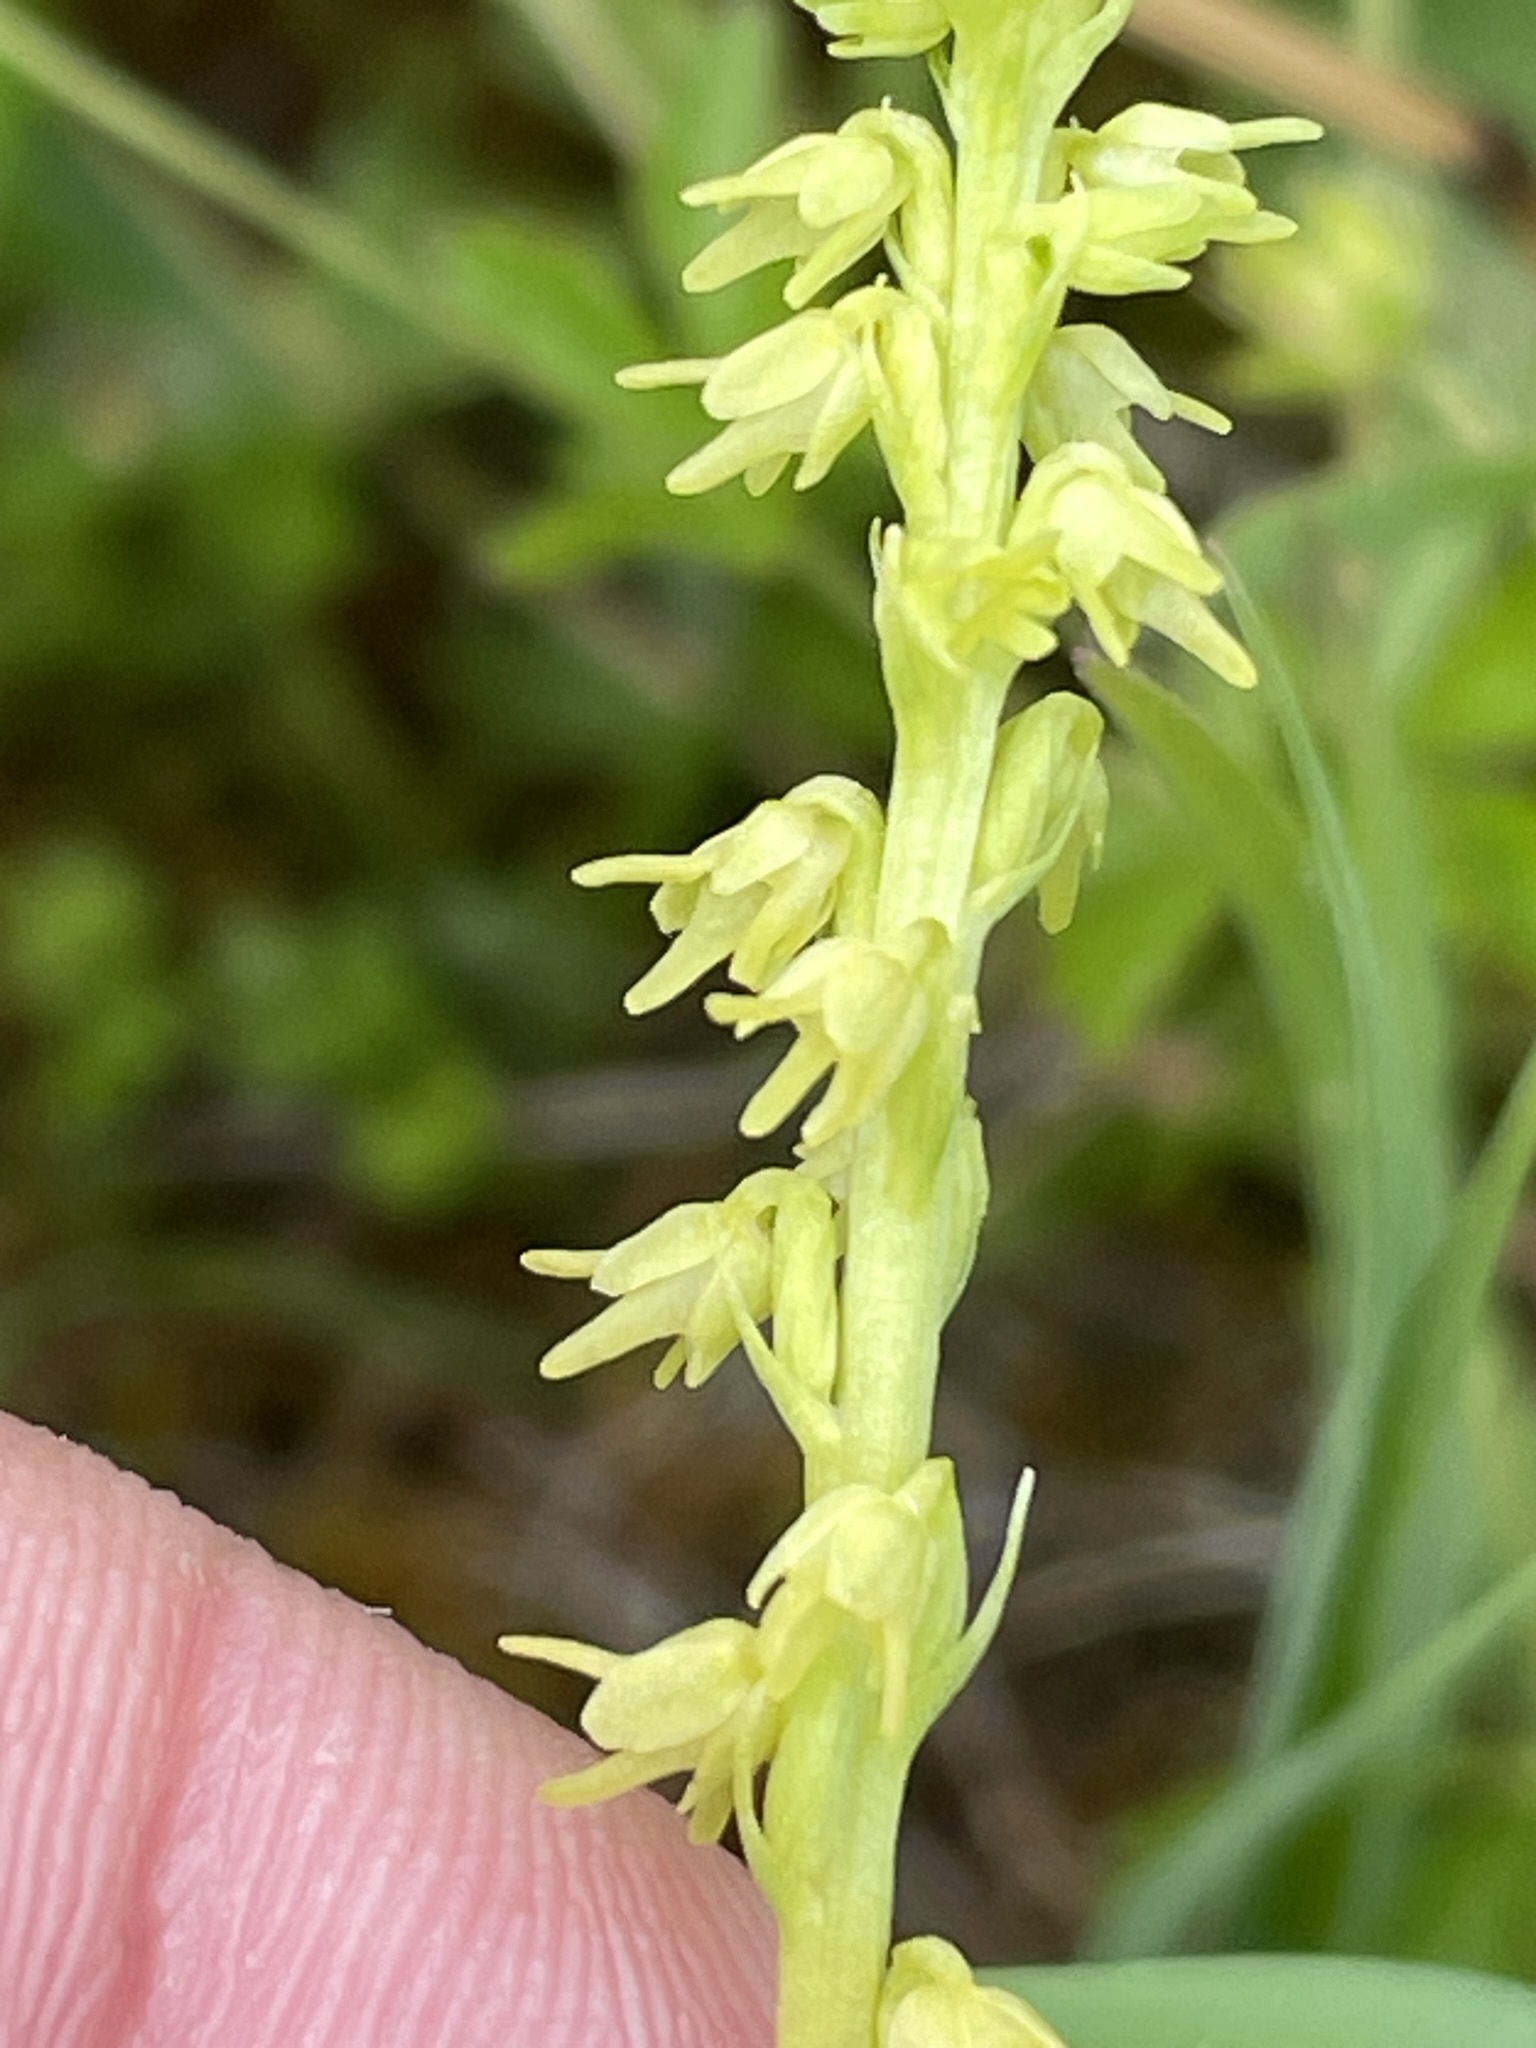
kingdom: Plantae
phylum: Tracheophyta
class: Liliopsida
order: Asparagales
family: Orchidaceae
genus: Herminium
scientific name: Herminium monorchis
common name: Musk orchid
